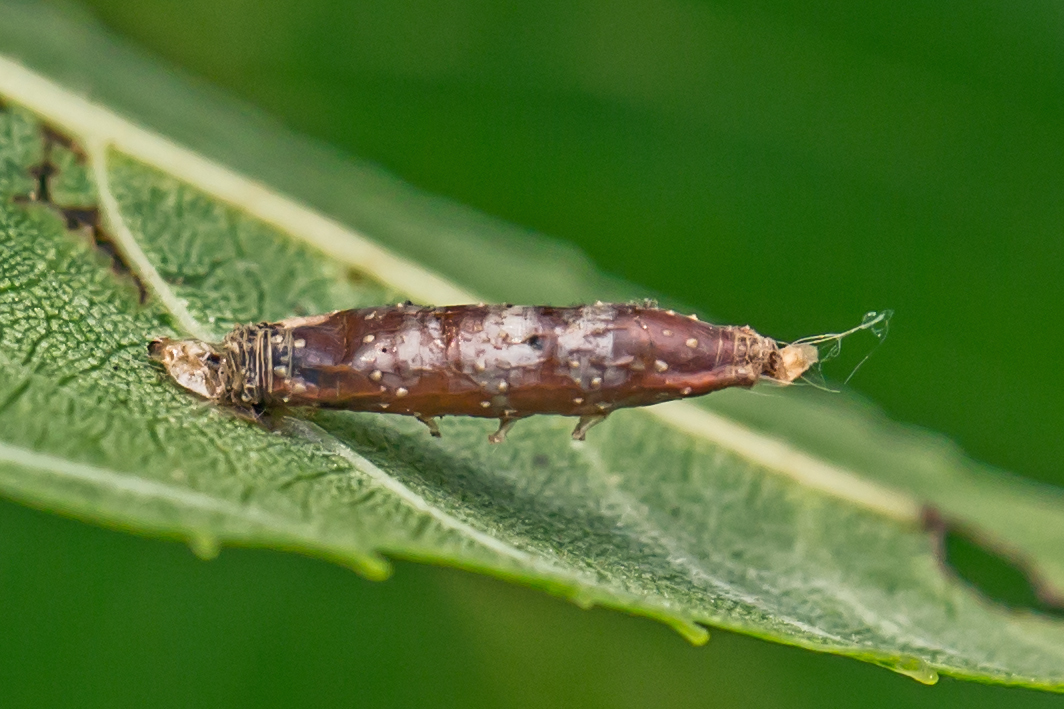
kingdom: Animalia
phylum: Arthropoda
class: Insecta
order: Hymenoptera
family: Braconidae
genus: Aleiodes
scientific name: Aleiodes
